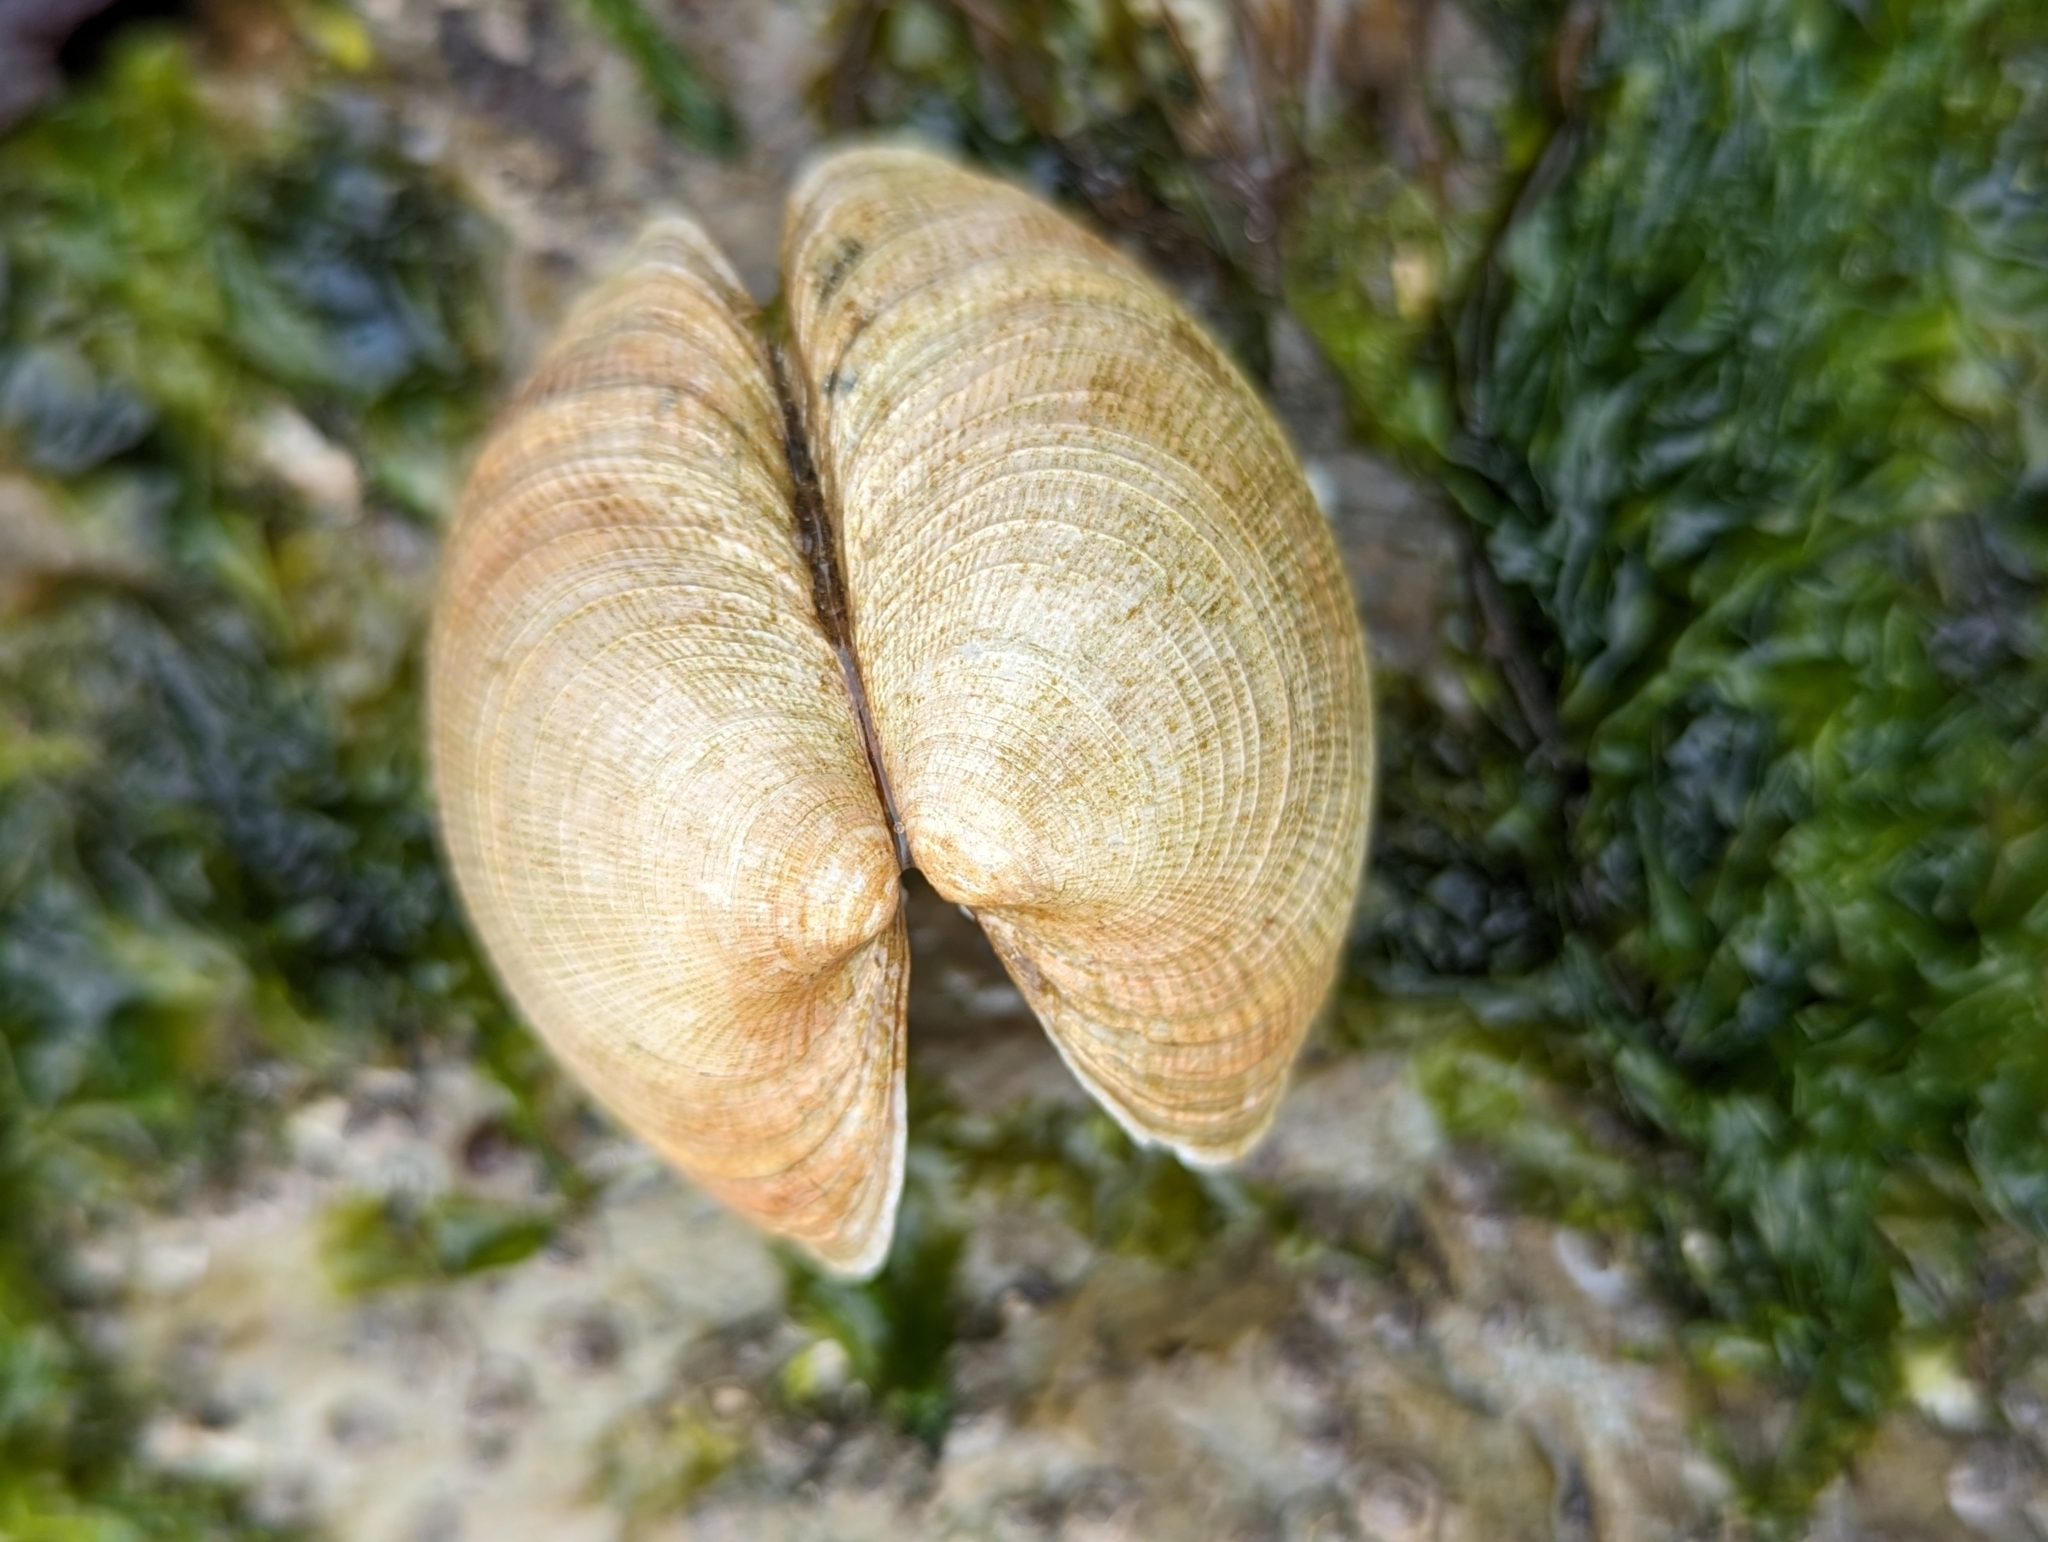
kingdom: Animalia
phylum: Mollusca
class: Bivalvia
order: Venerida
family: Veneridae
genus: Leukoma
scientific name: Leukoma staminea
